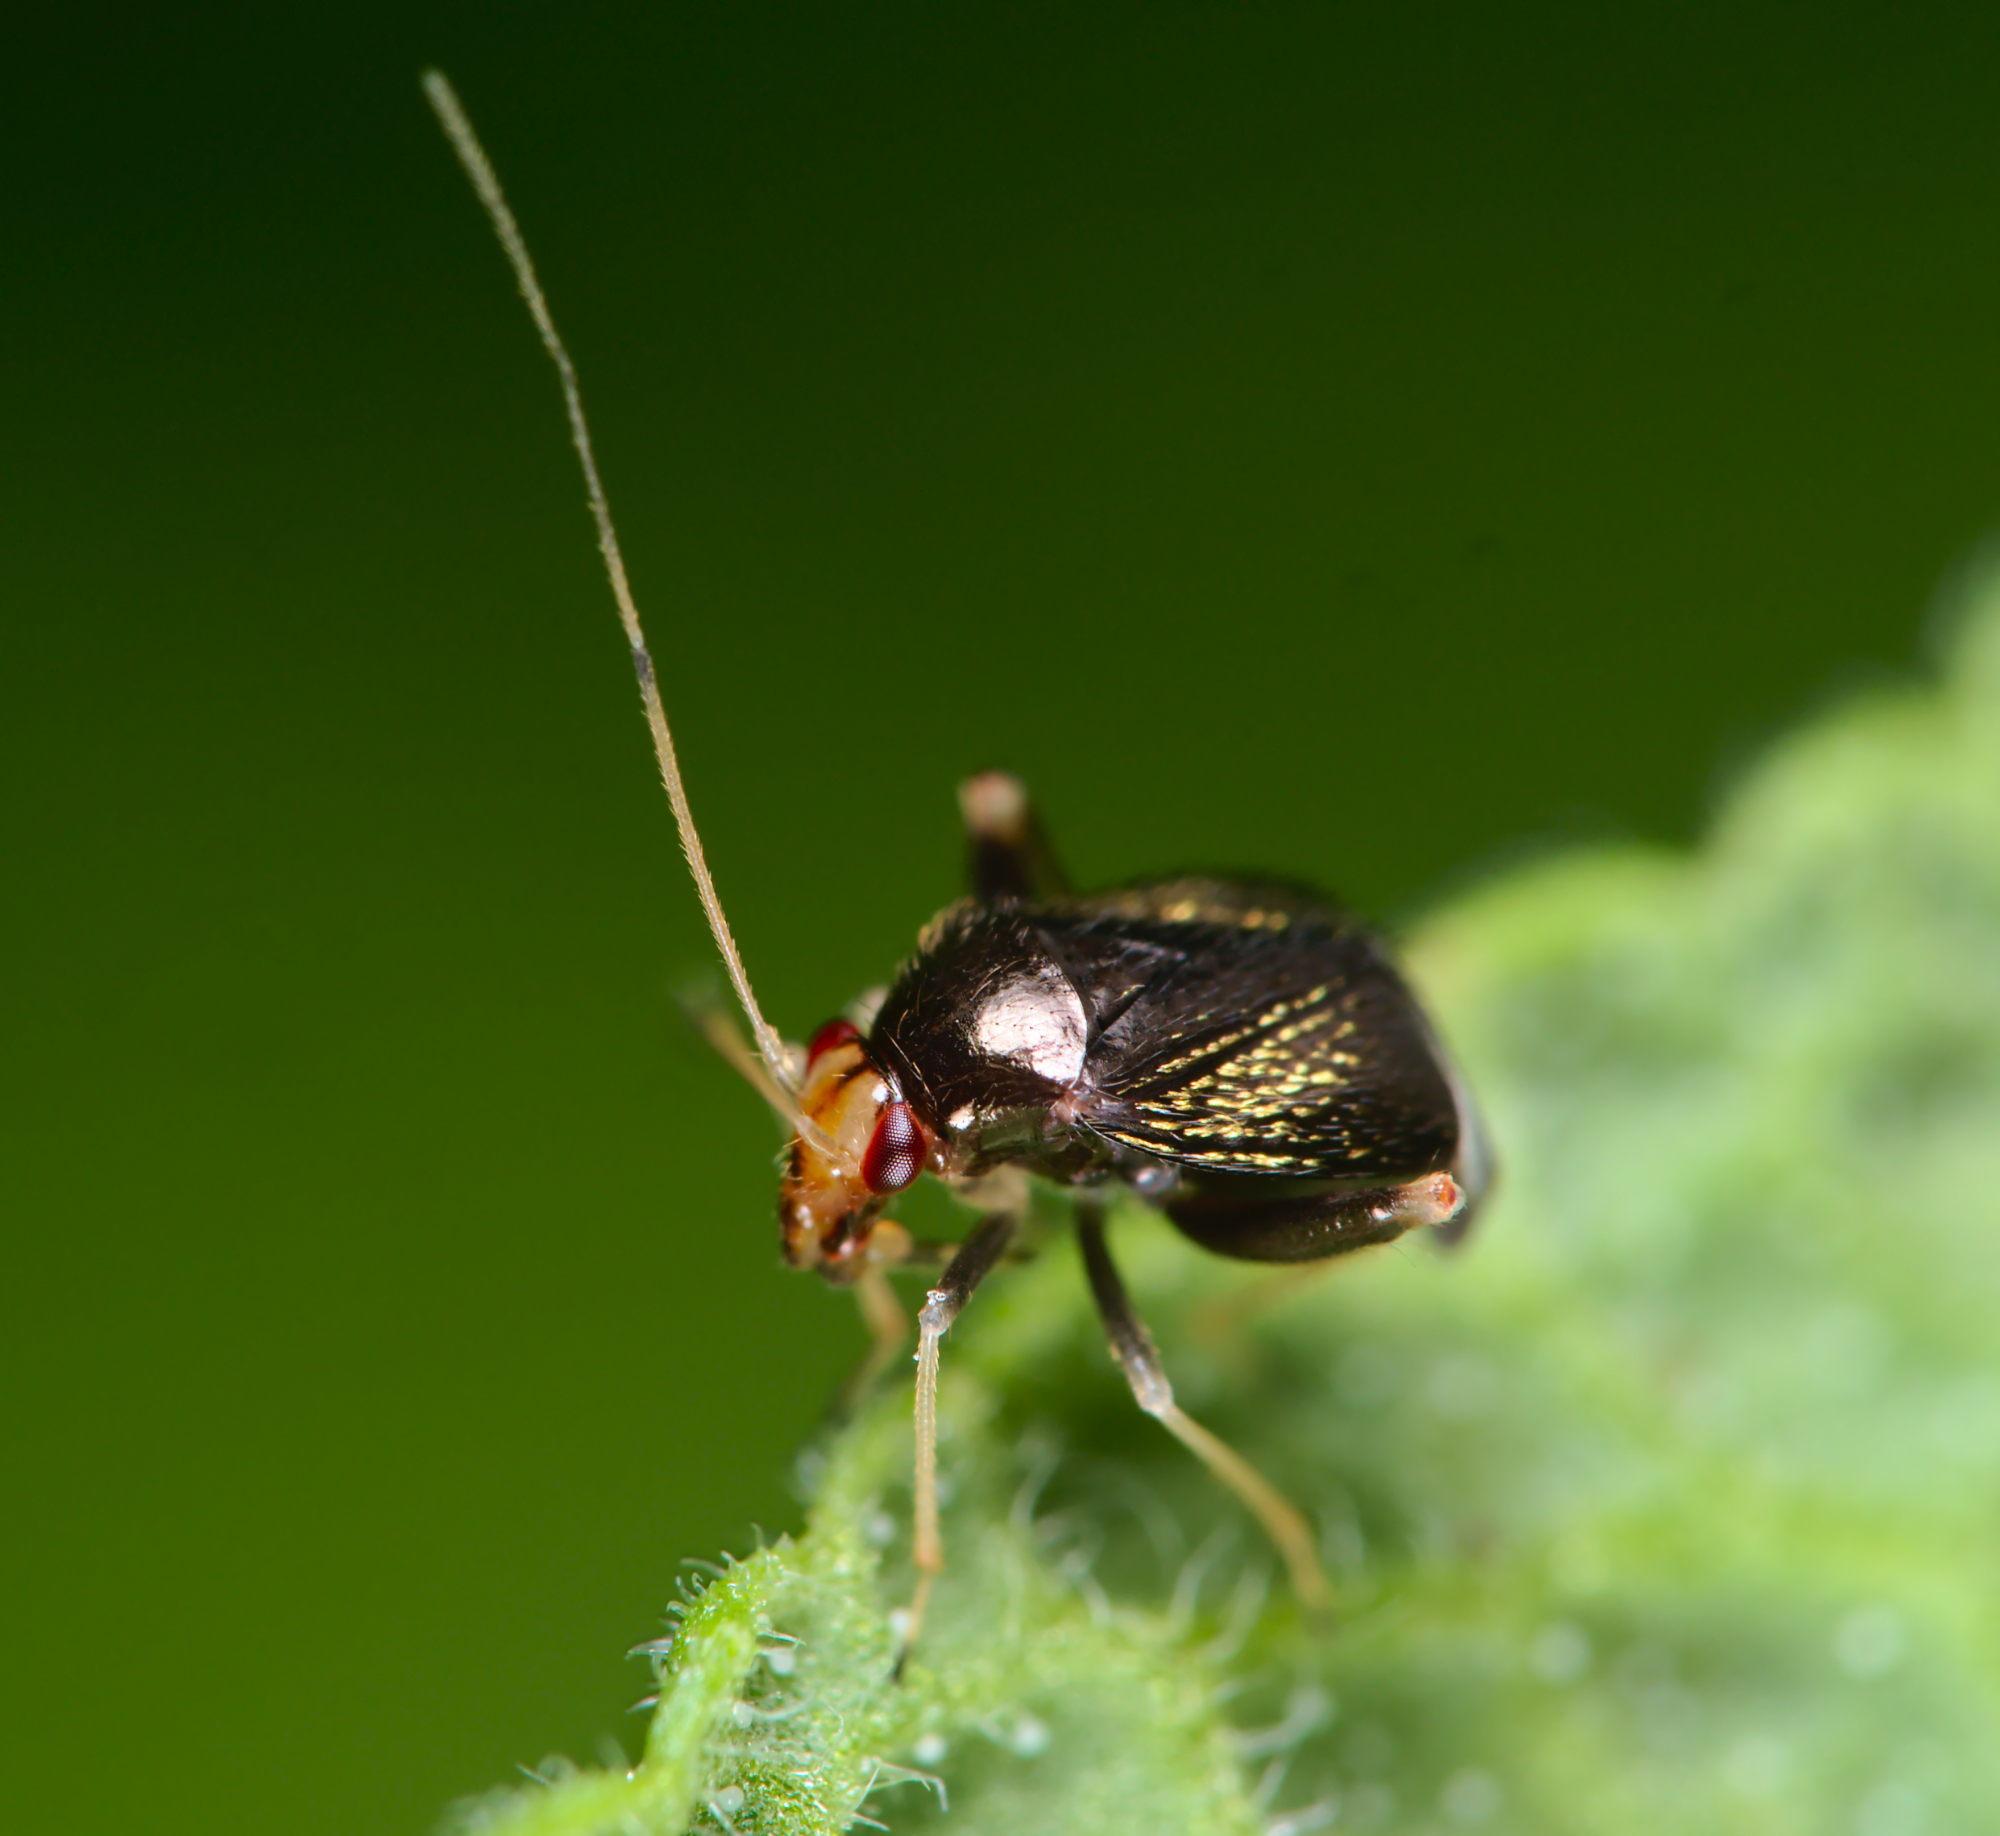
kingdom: Animalia
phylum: Arthropoda
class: Insecta
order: Hemiptera
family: Miridae
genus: Halticus
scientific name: Halticus luteicollis
